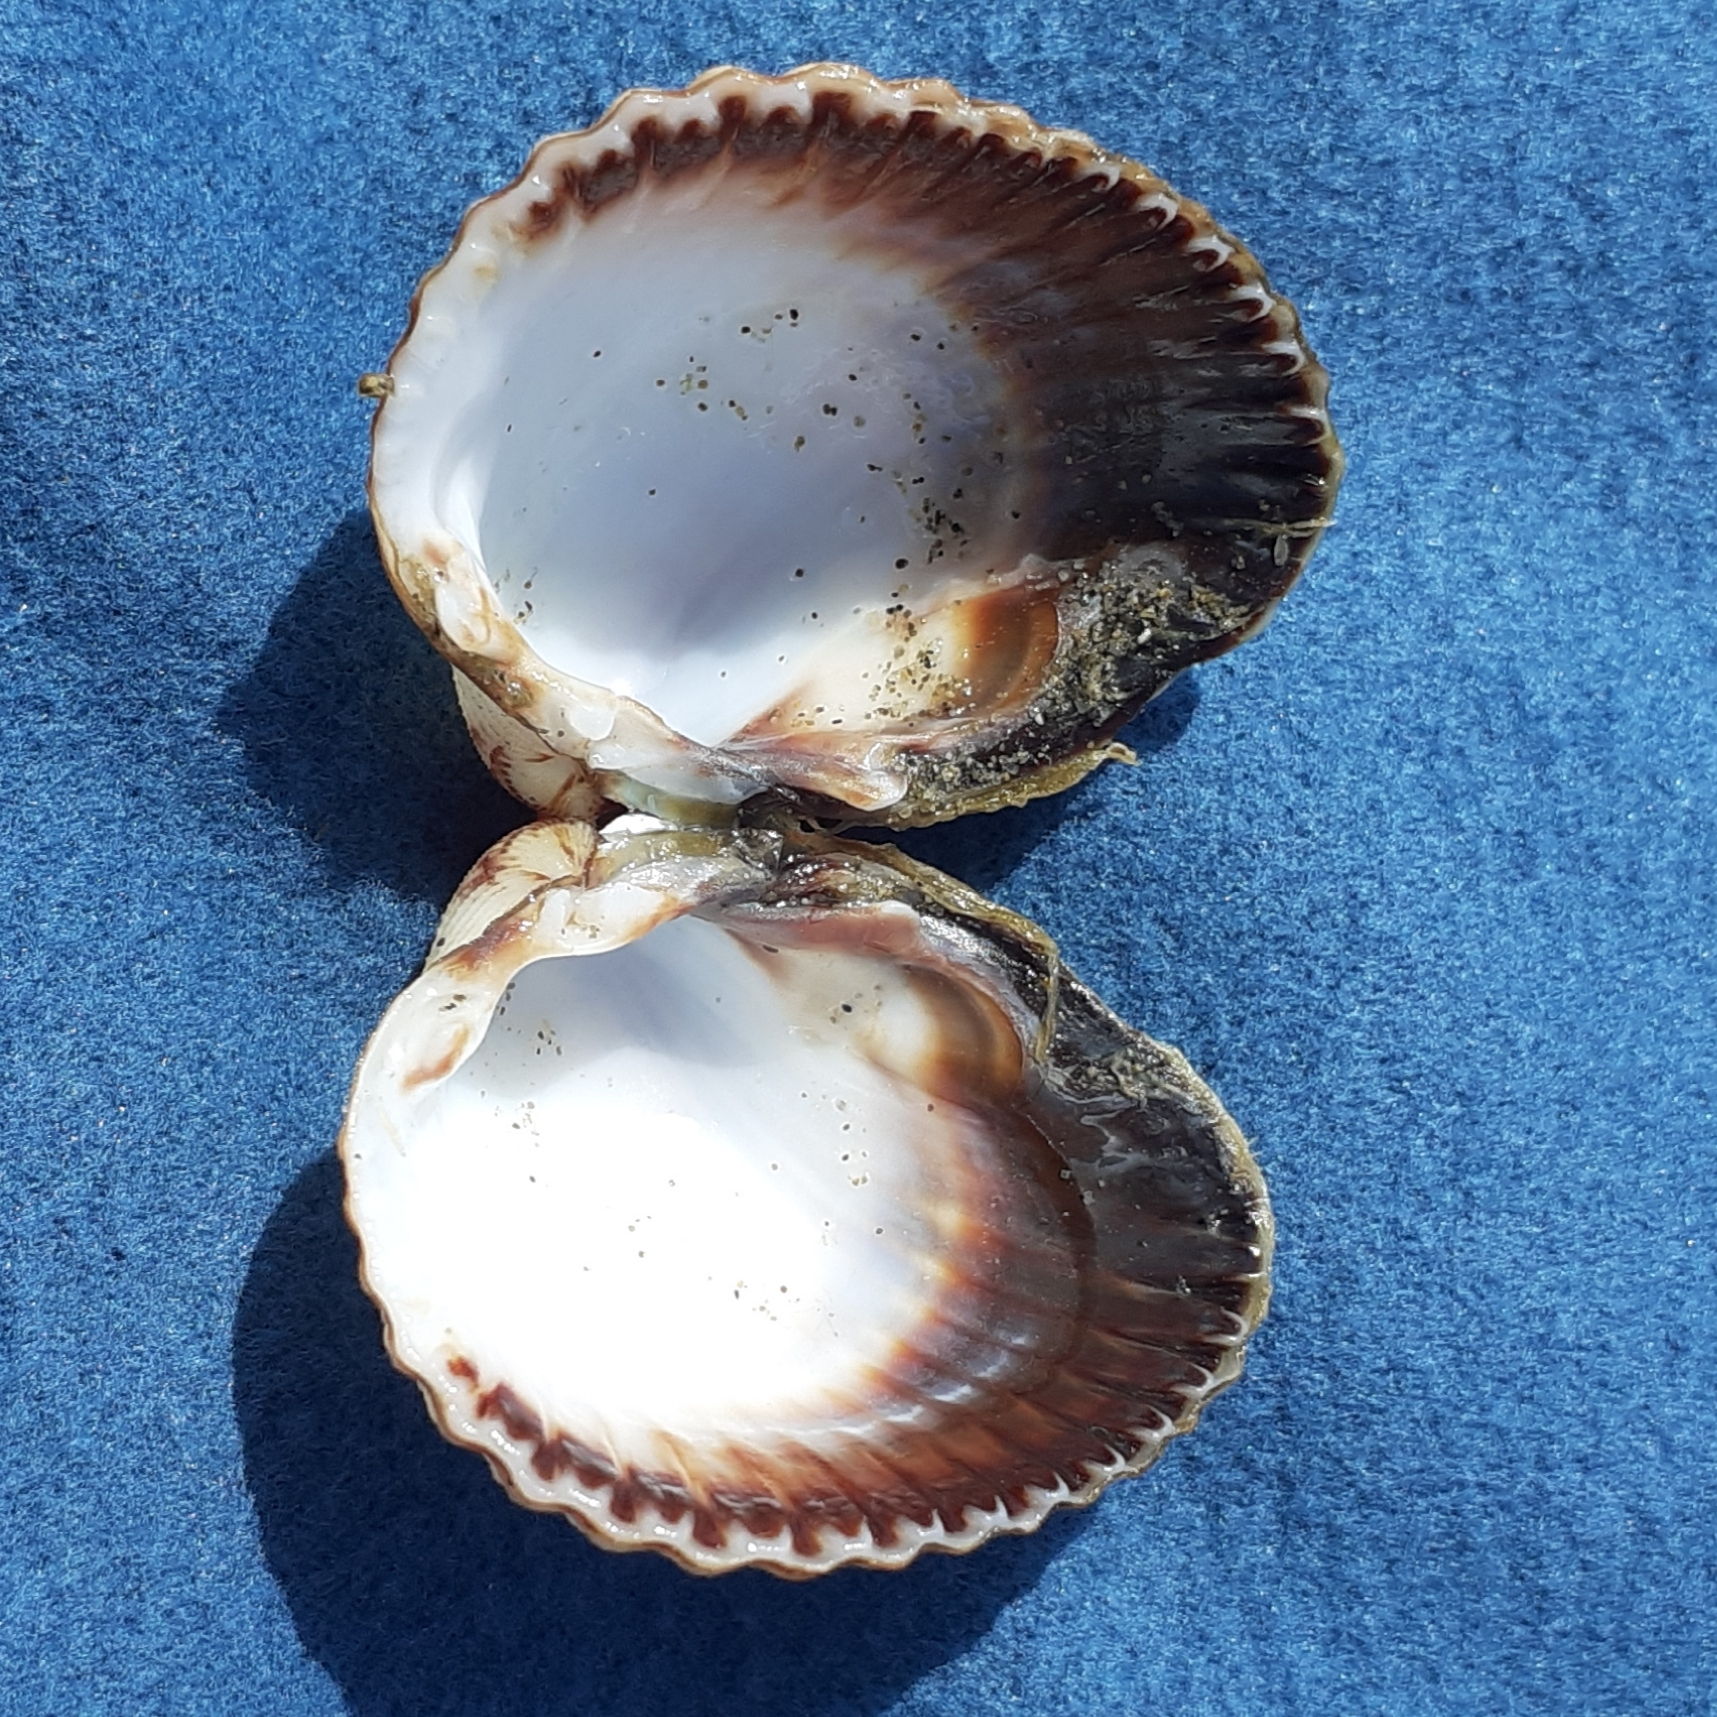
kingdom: Animalia
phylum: Mollusca
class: Bivalvia
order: Cardiida
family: Cardiidae
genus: Cerastoderma
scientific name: Cerastoderma glaucum
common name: Lagoon cockle
